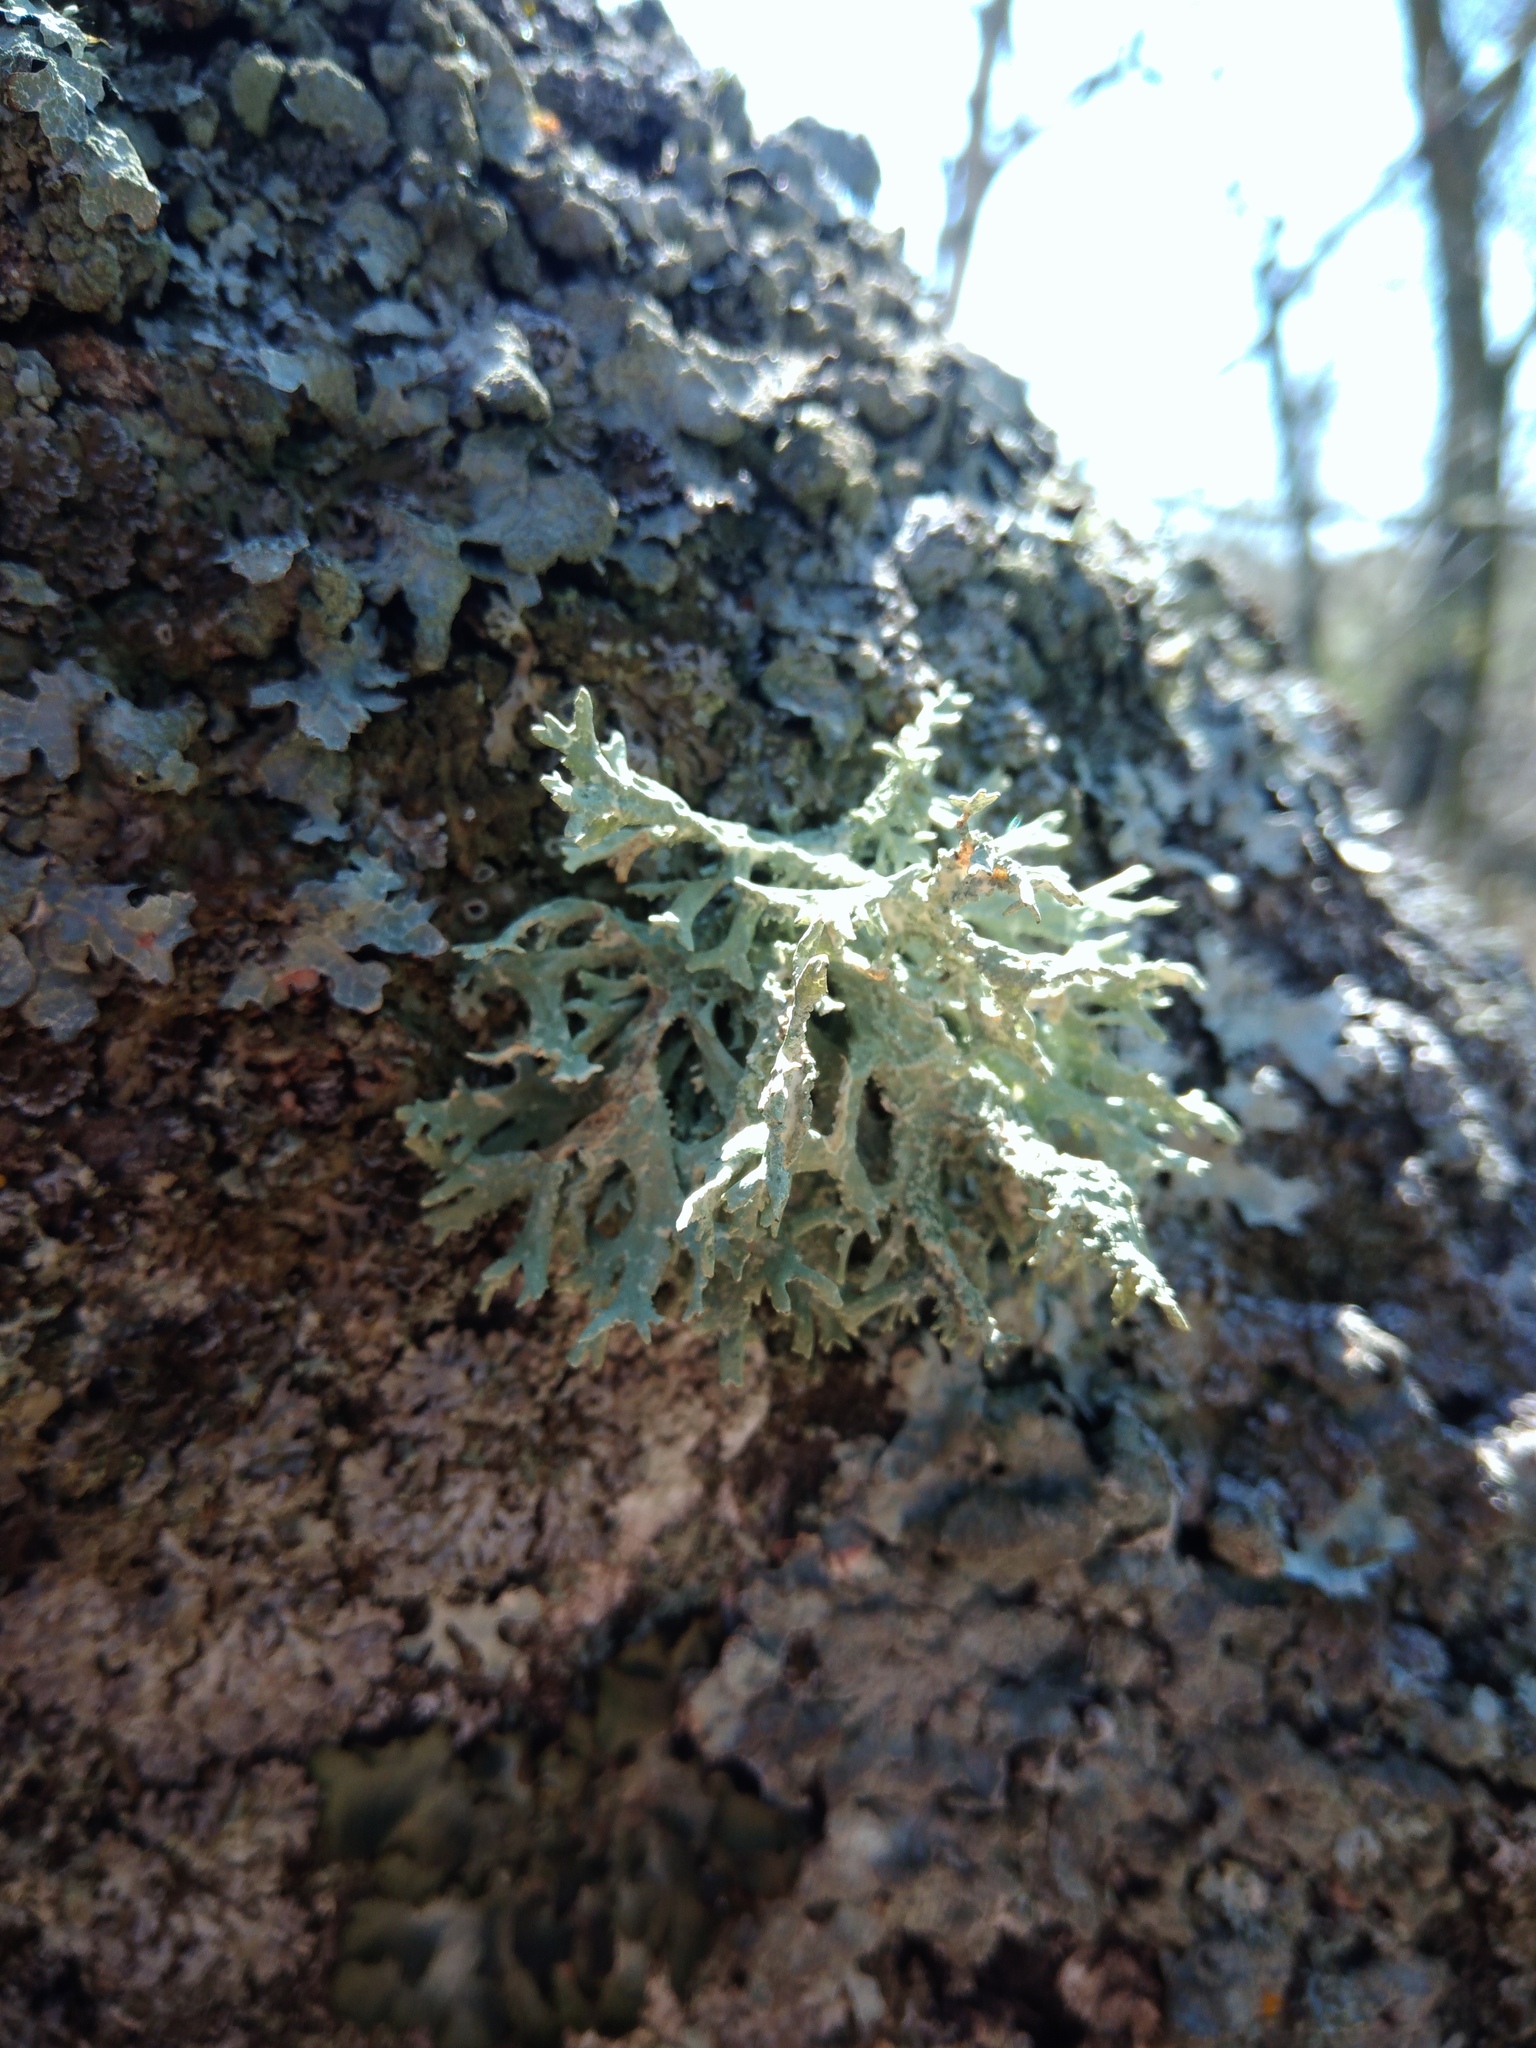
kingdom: Fungi
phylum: Ascomycota
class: Lecanoromycetes
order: Lecanorales
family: Parmeliaceae
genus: Evernia
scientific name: Evernia prunastri
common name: Oak moss
